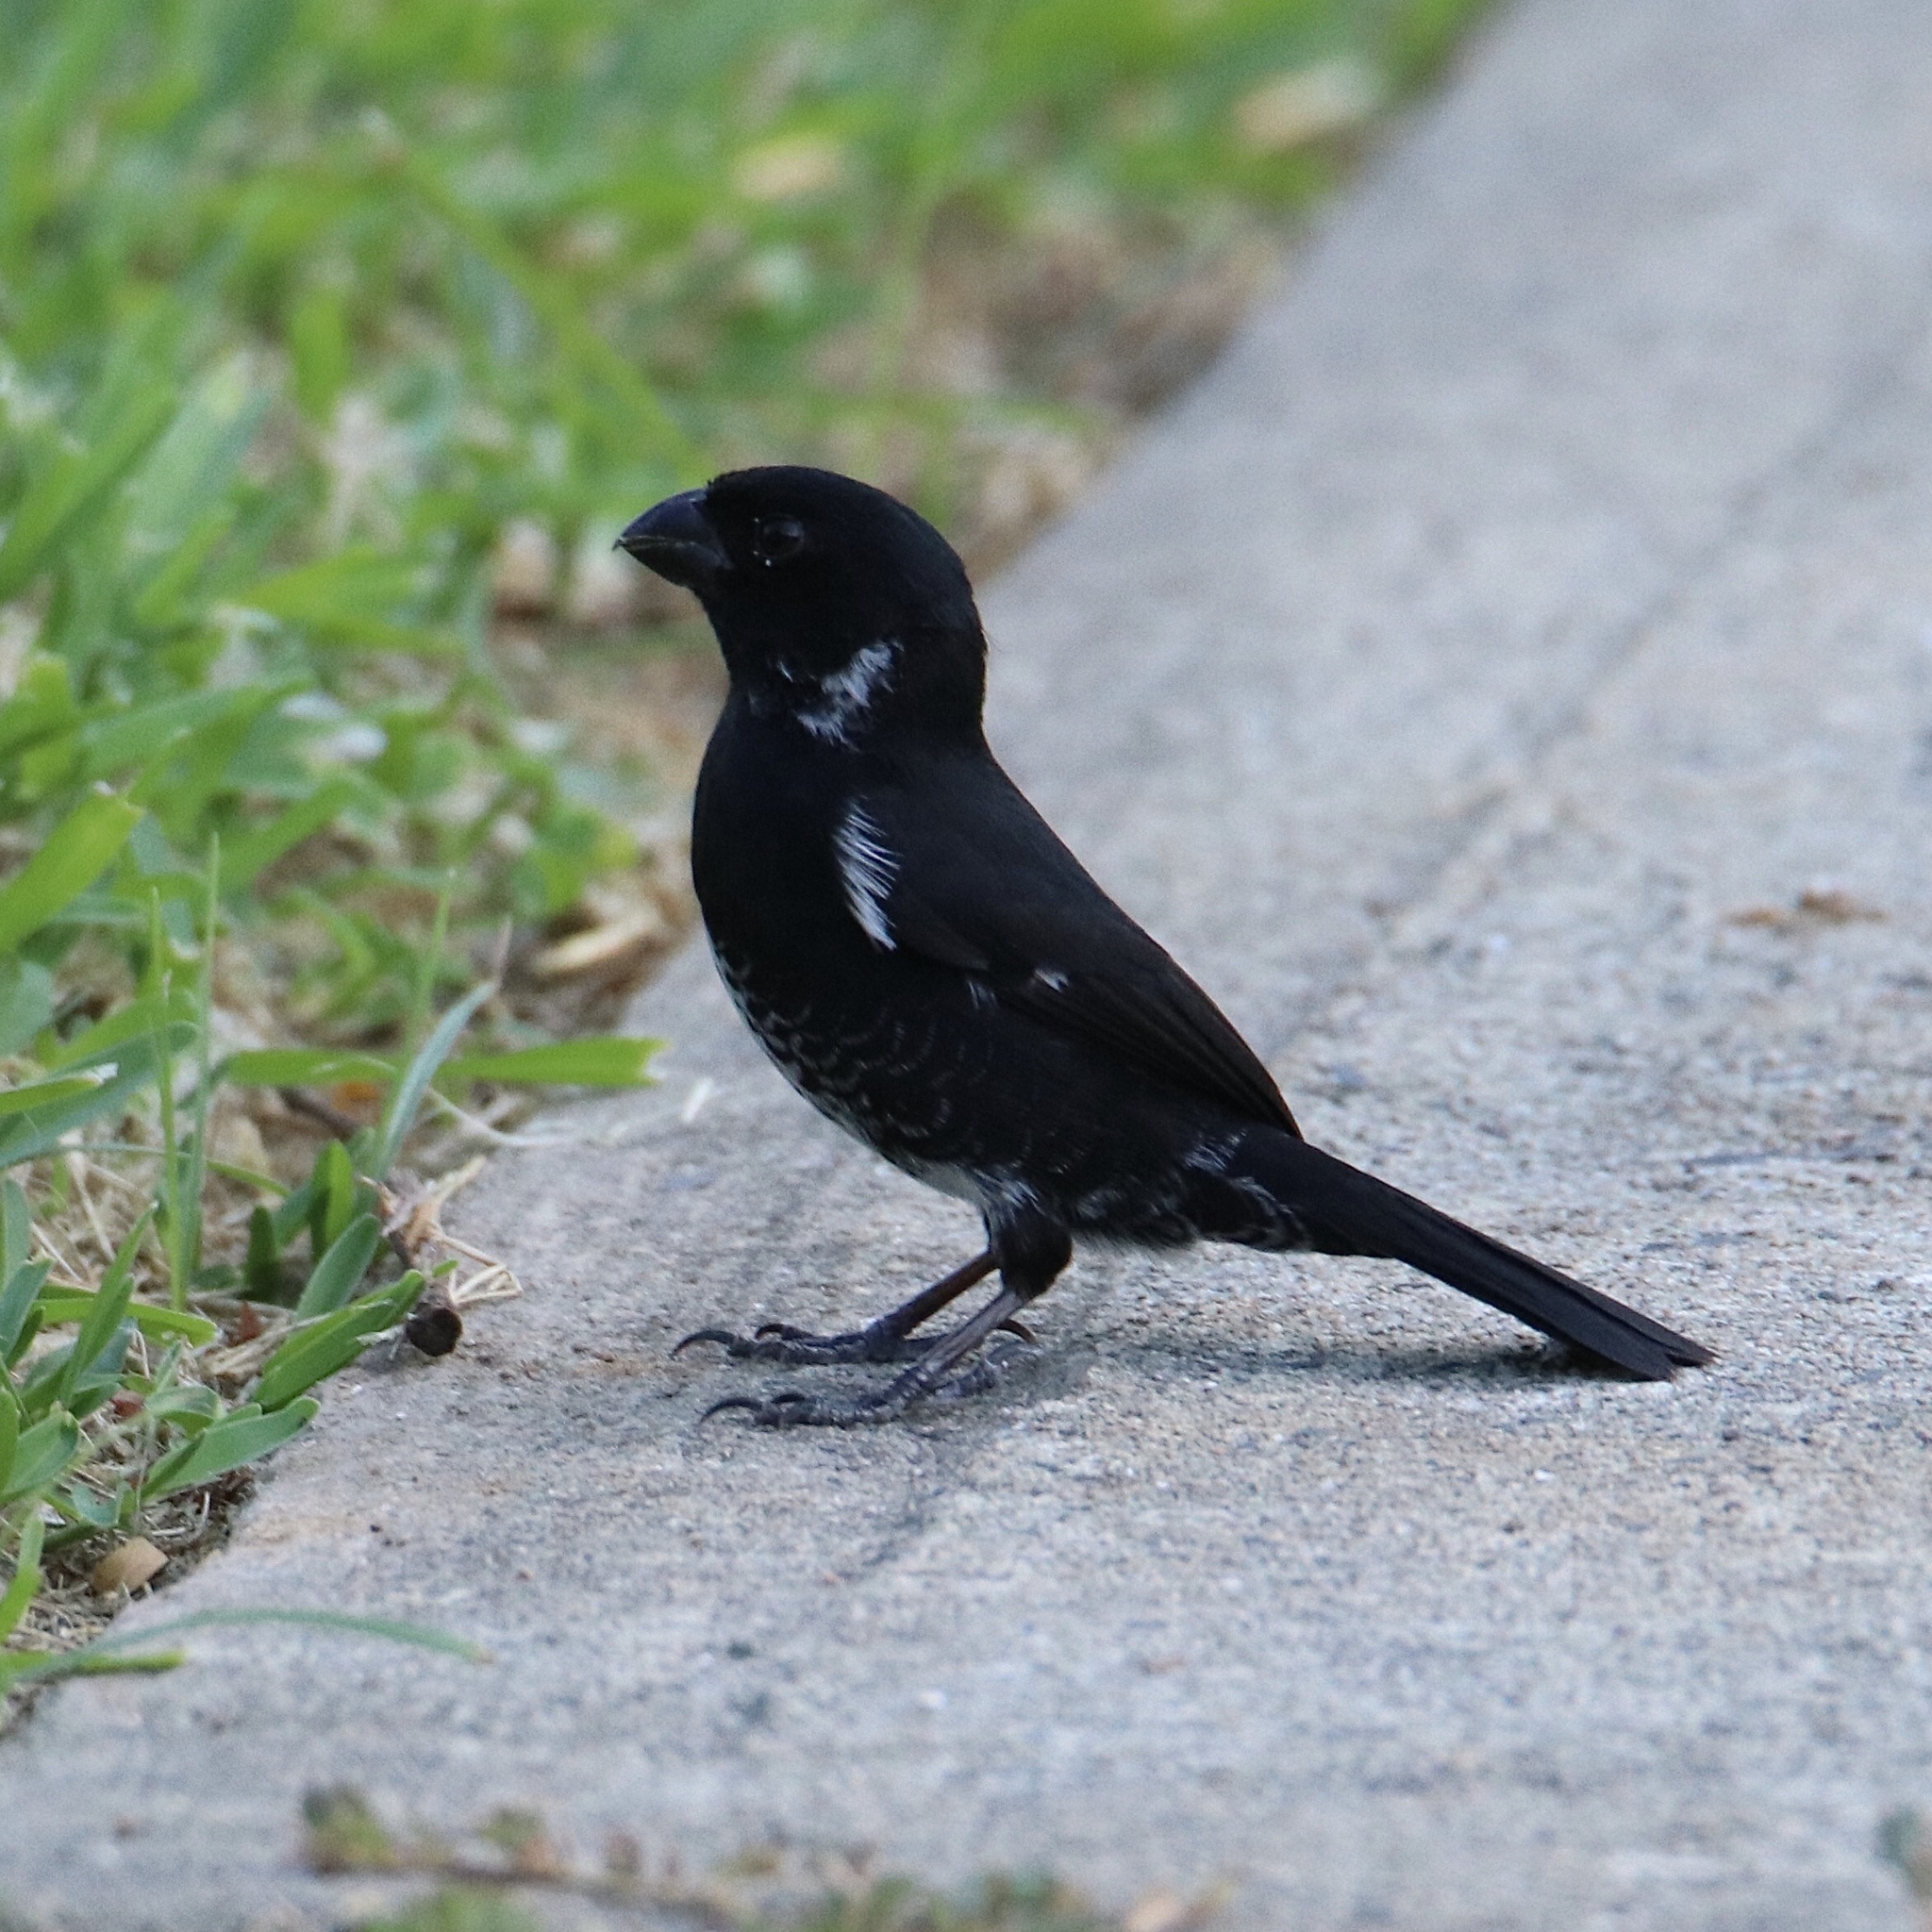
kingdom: Animalia
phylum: Chordata
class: Aves
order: Passeriformes
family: Thraupidae
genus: Sporophila
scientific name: Sporophila corvina
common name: Variable seedeater
